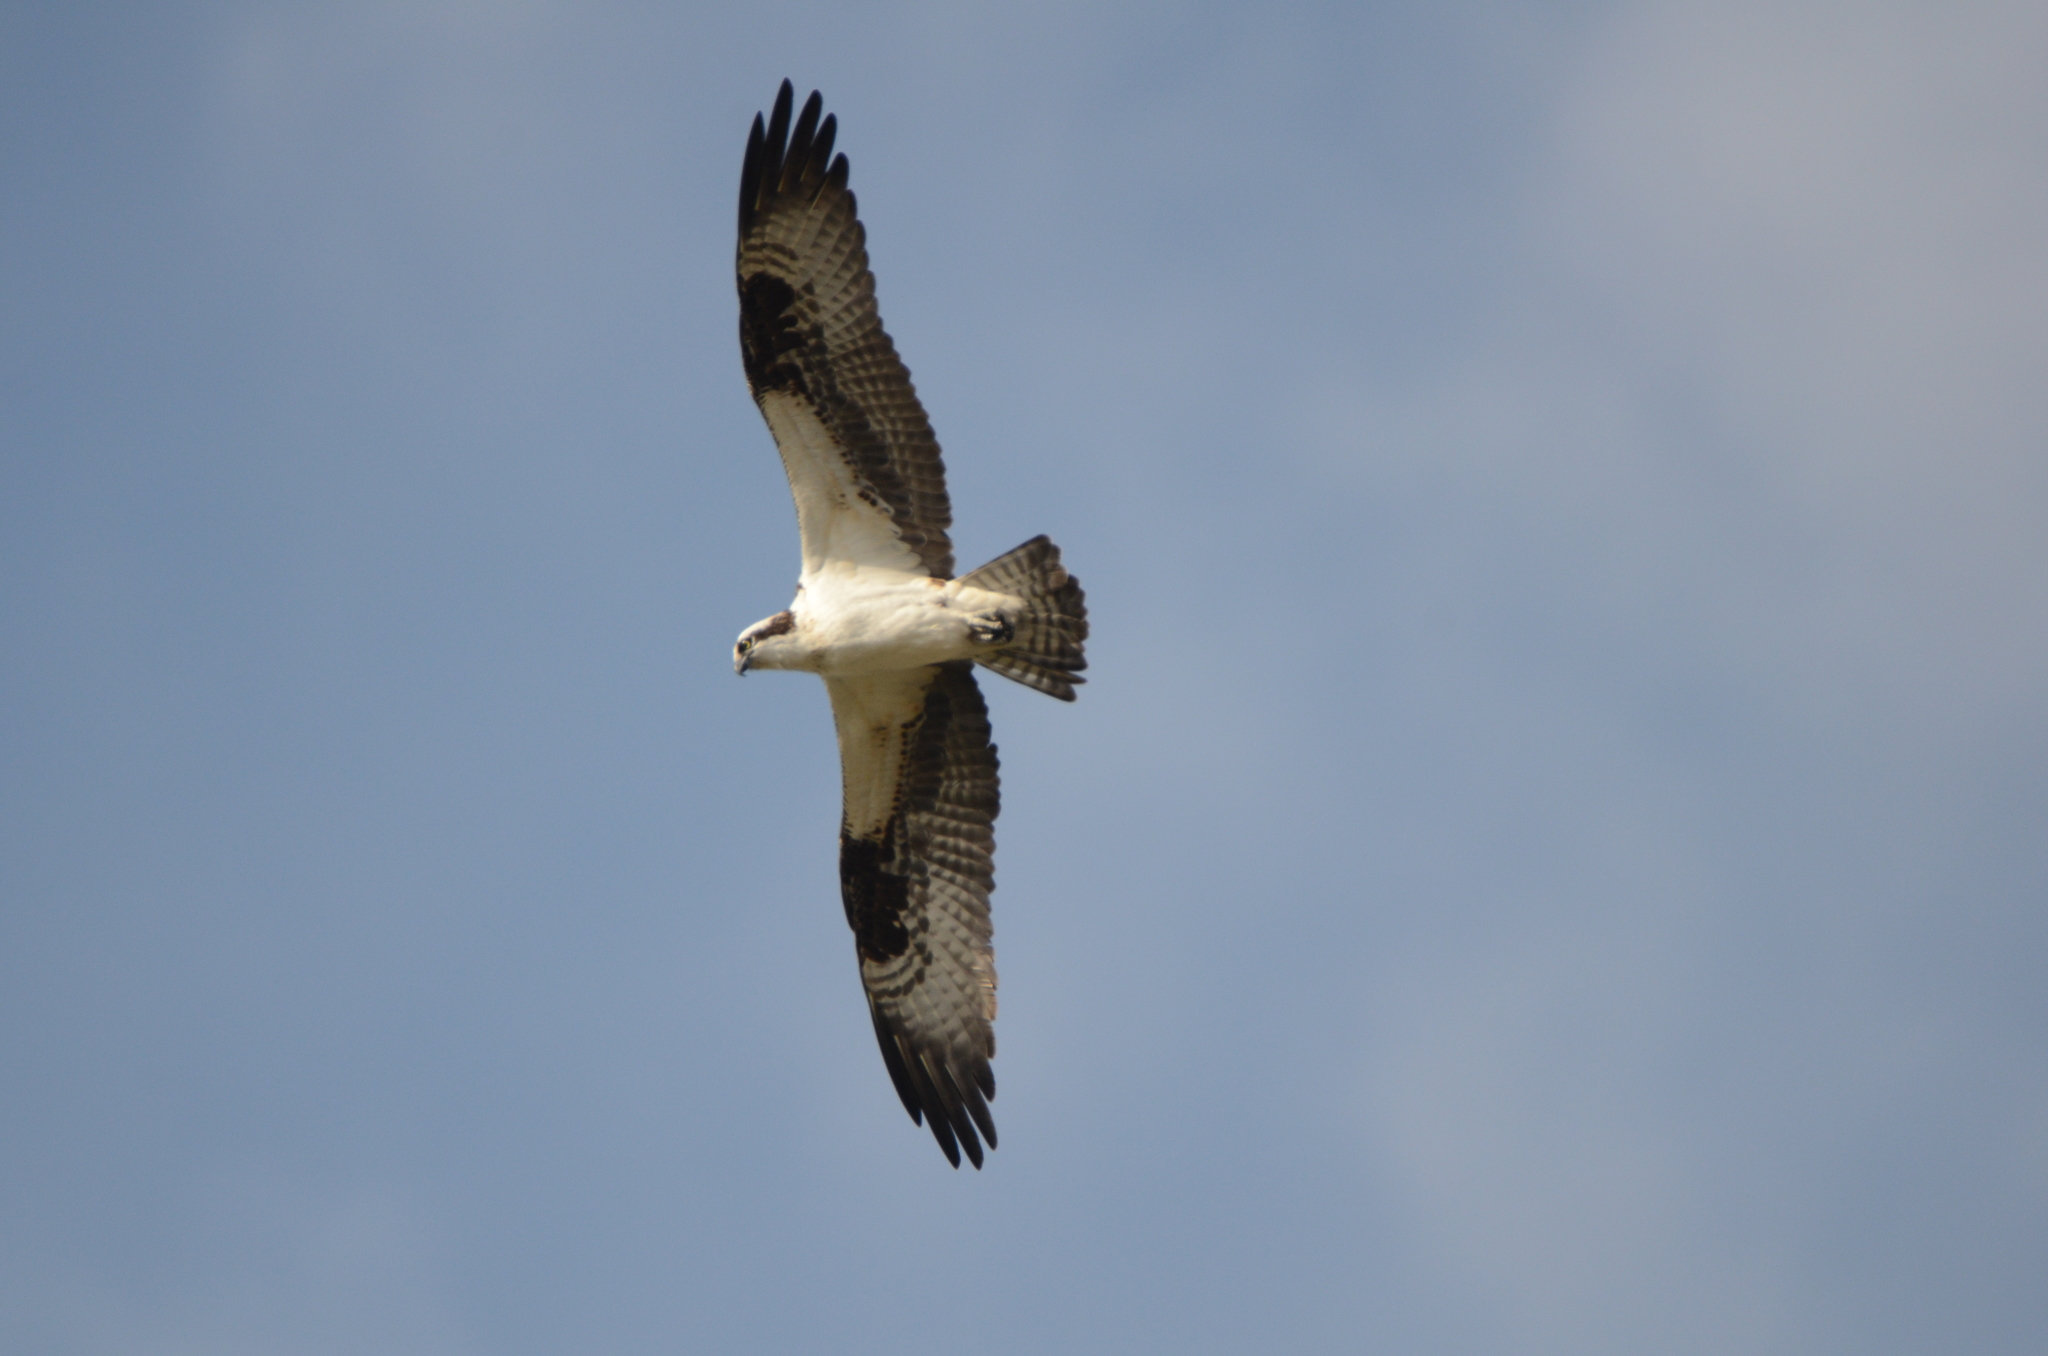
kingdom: Animalia
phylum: Chordata
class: Aves
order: Accipitriformes
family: Pandionidae
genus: Pandion
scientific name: Pandion haliaetus
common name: Osprey
